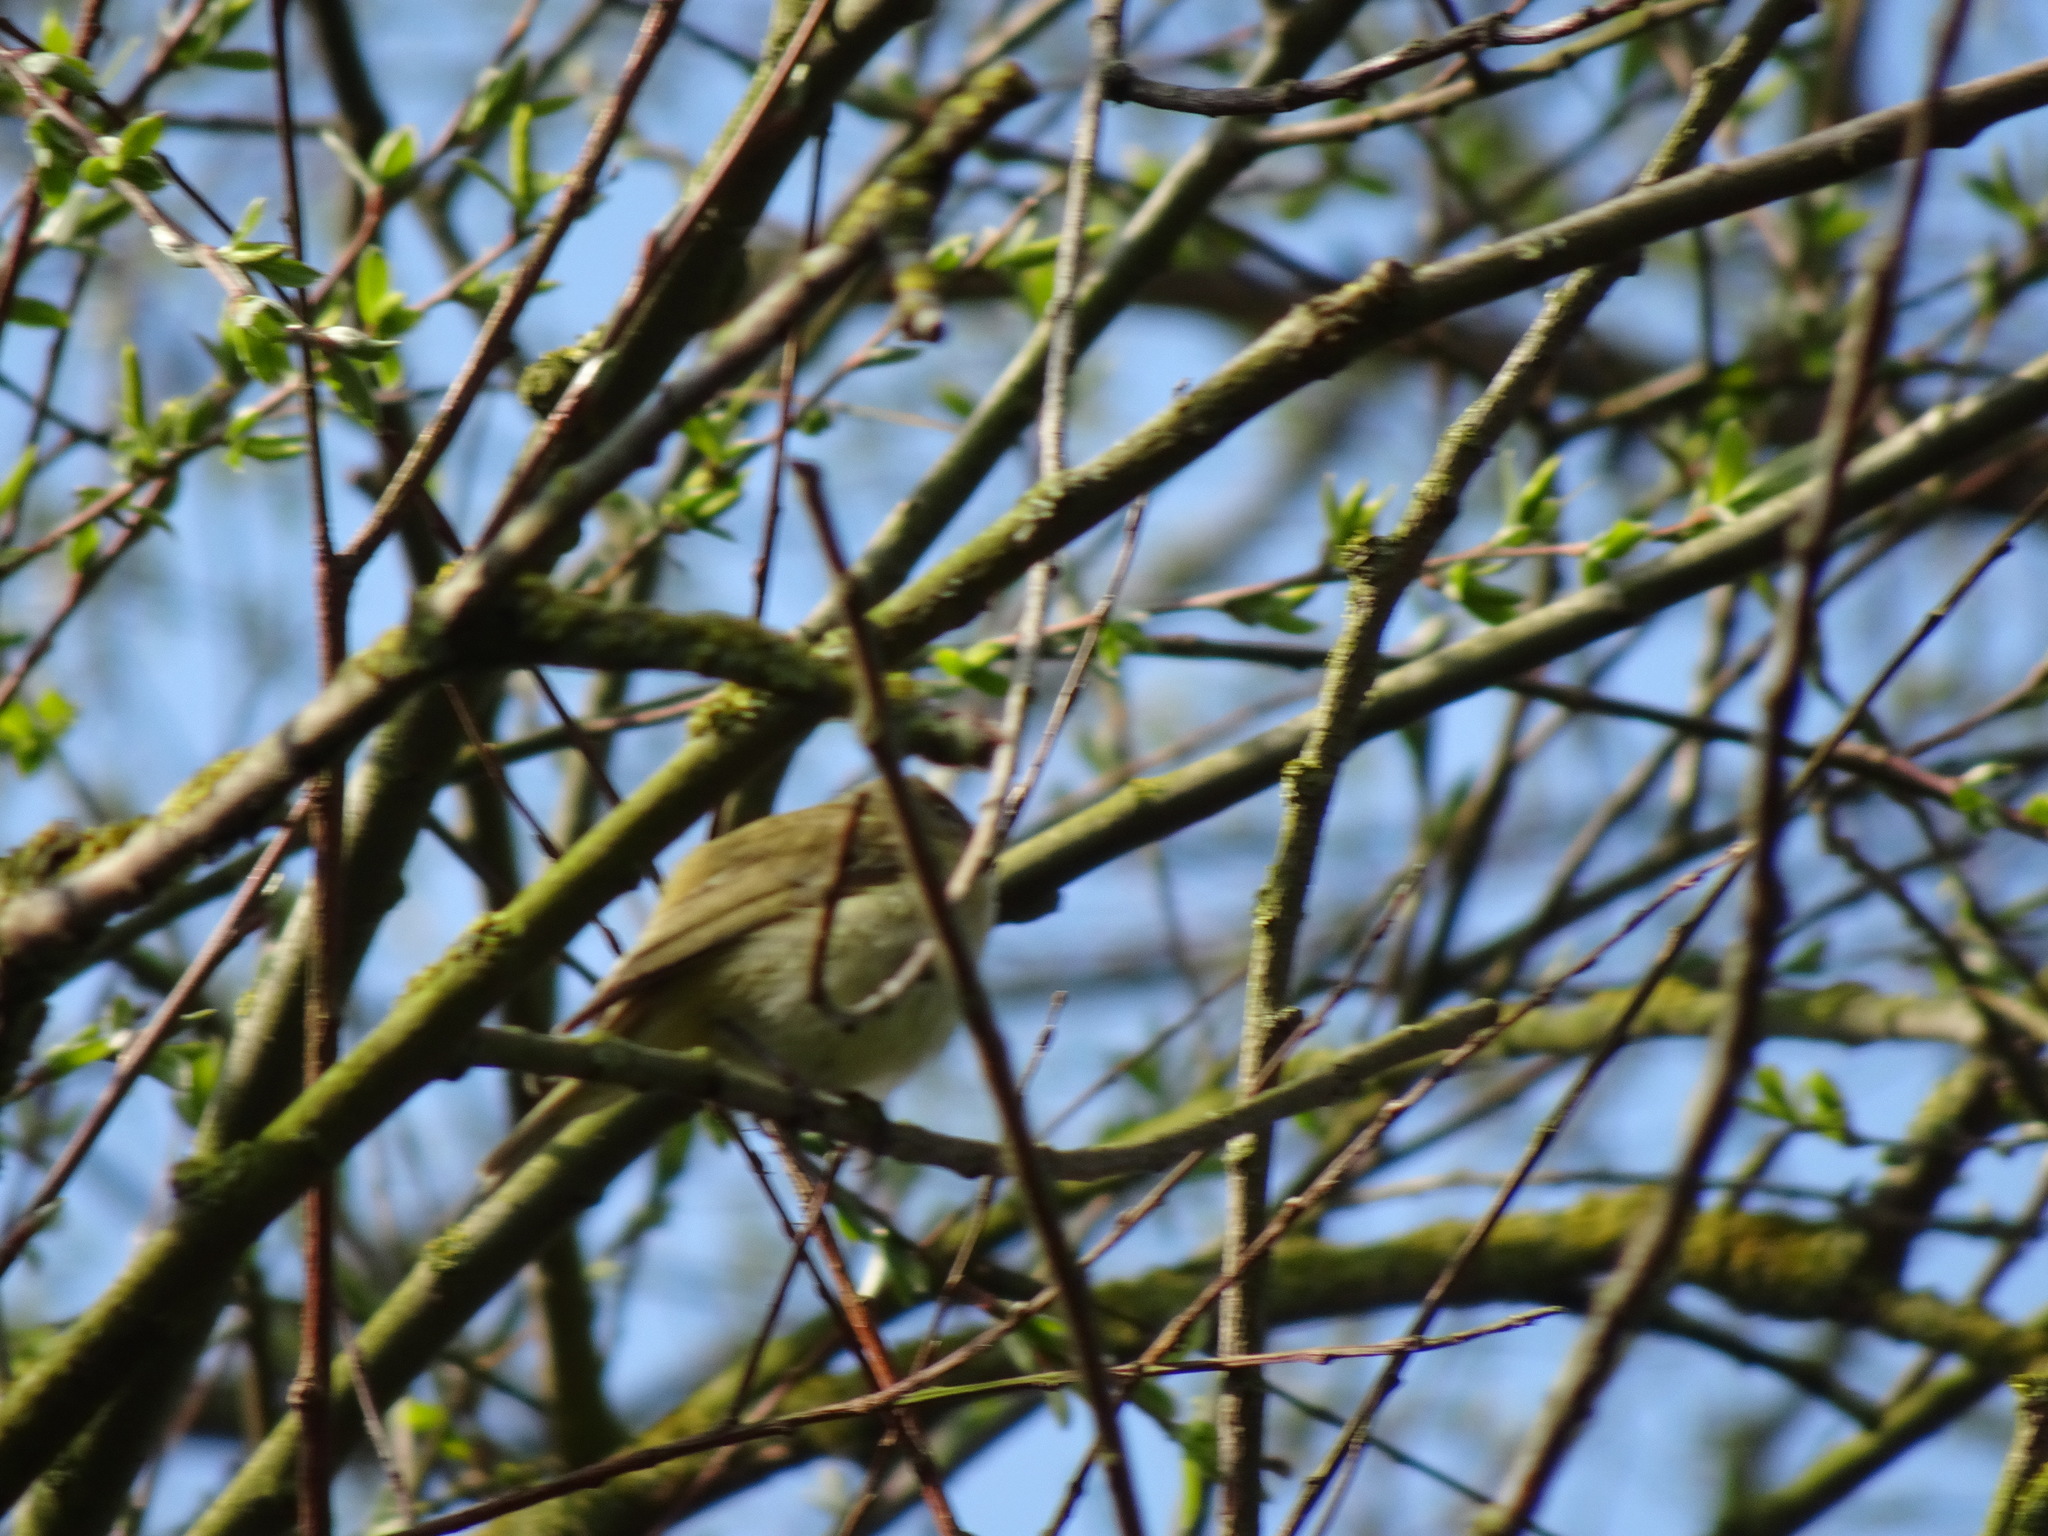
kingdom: Animalia
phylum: Chordata
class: Aves
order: Passeriformes
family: Phylloscopidae
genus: Phylloscopus
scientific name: Phylloscopus collybita
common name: Common chiffchaff
